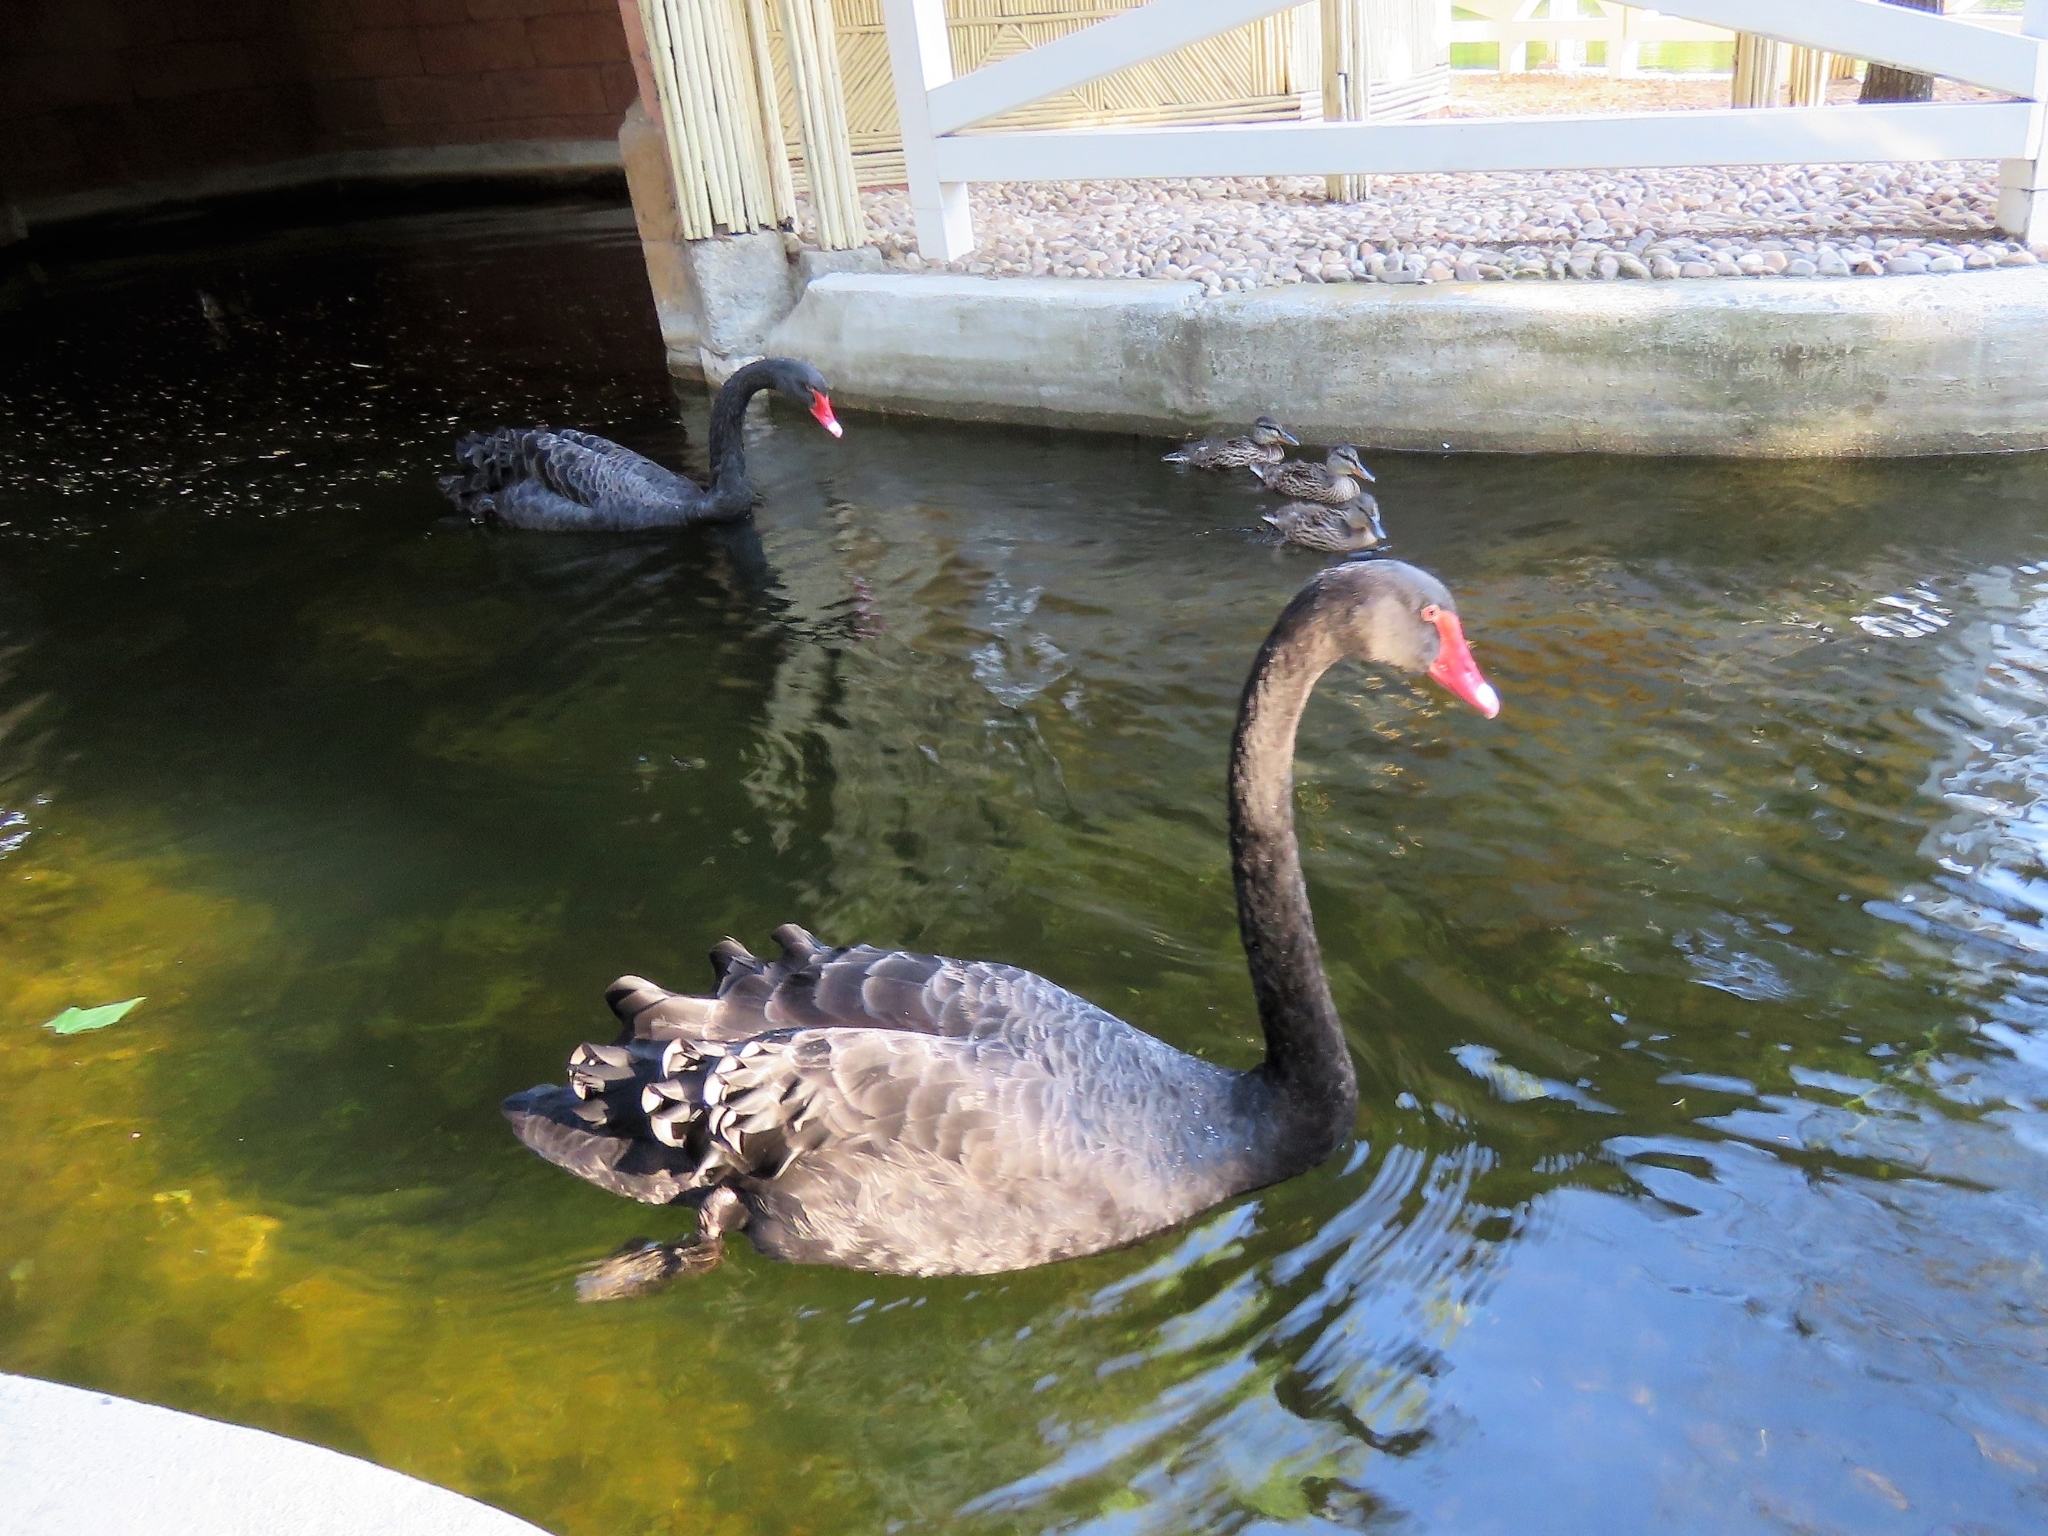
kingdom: Animalia
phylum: Chordata
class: Aves
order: Anseriformes
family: Anatidae
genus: Cygnus
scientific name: Cygnus atratus
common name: Black swan
